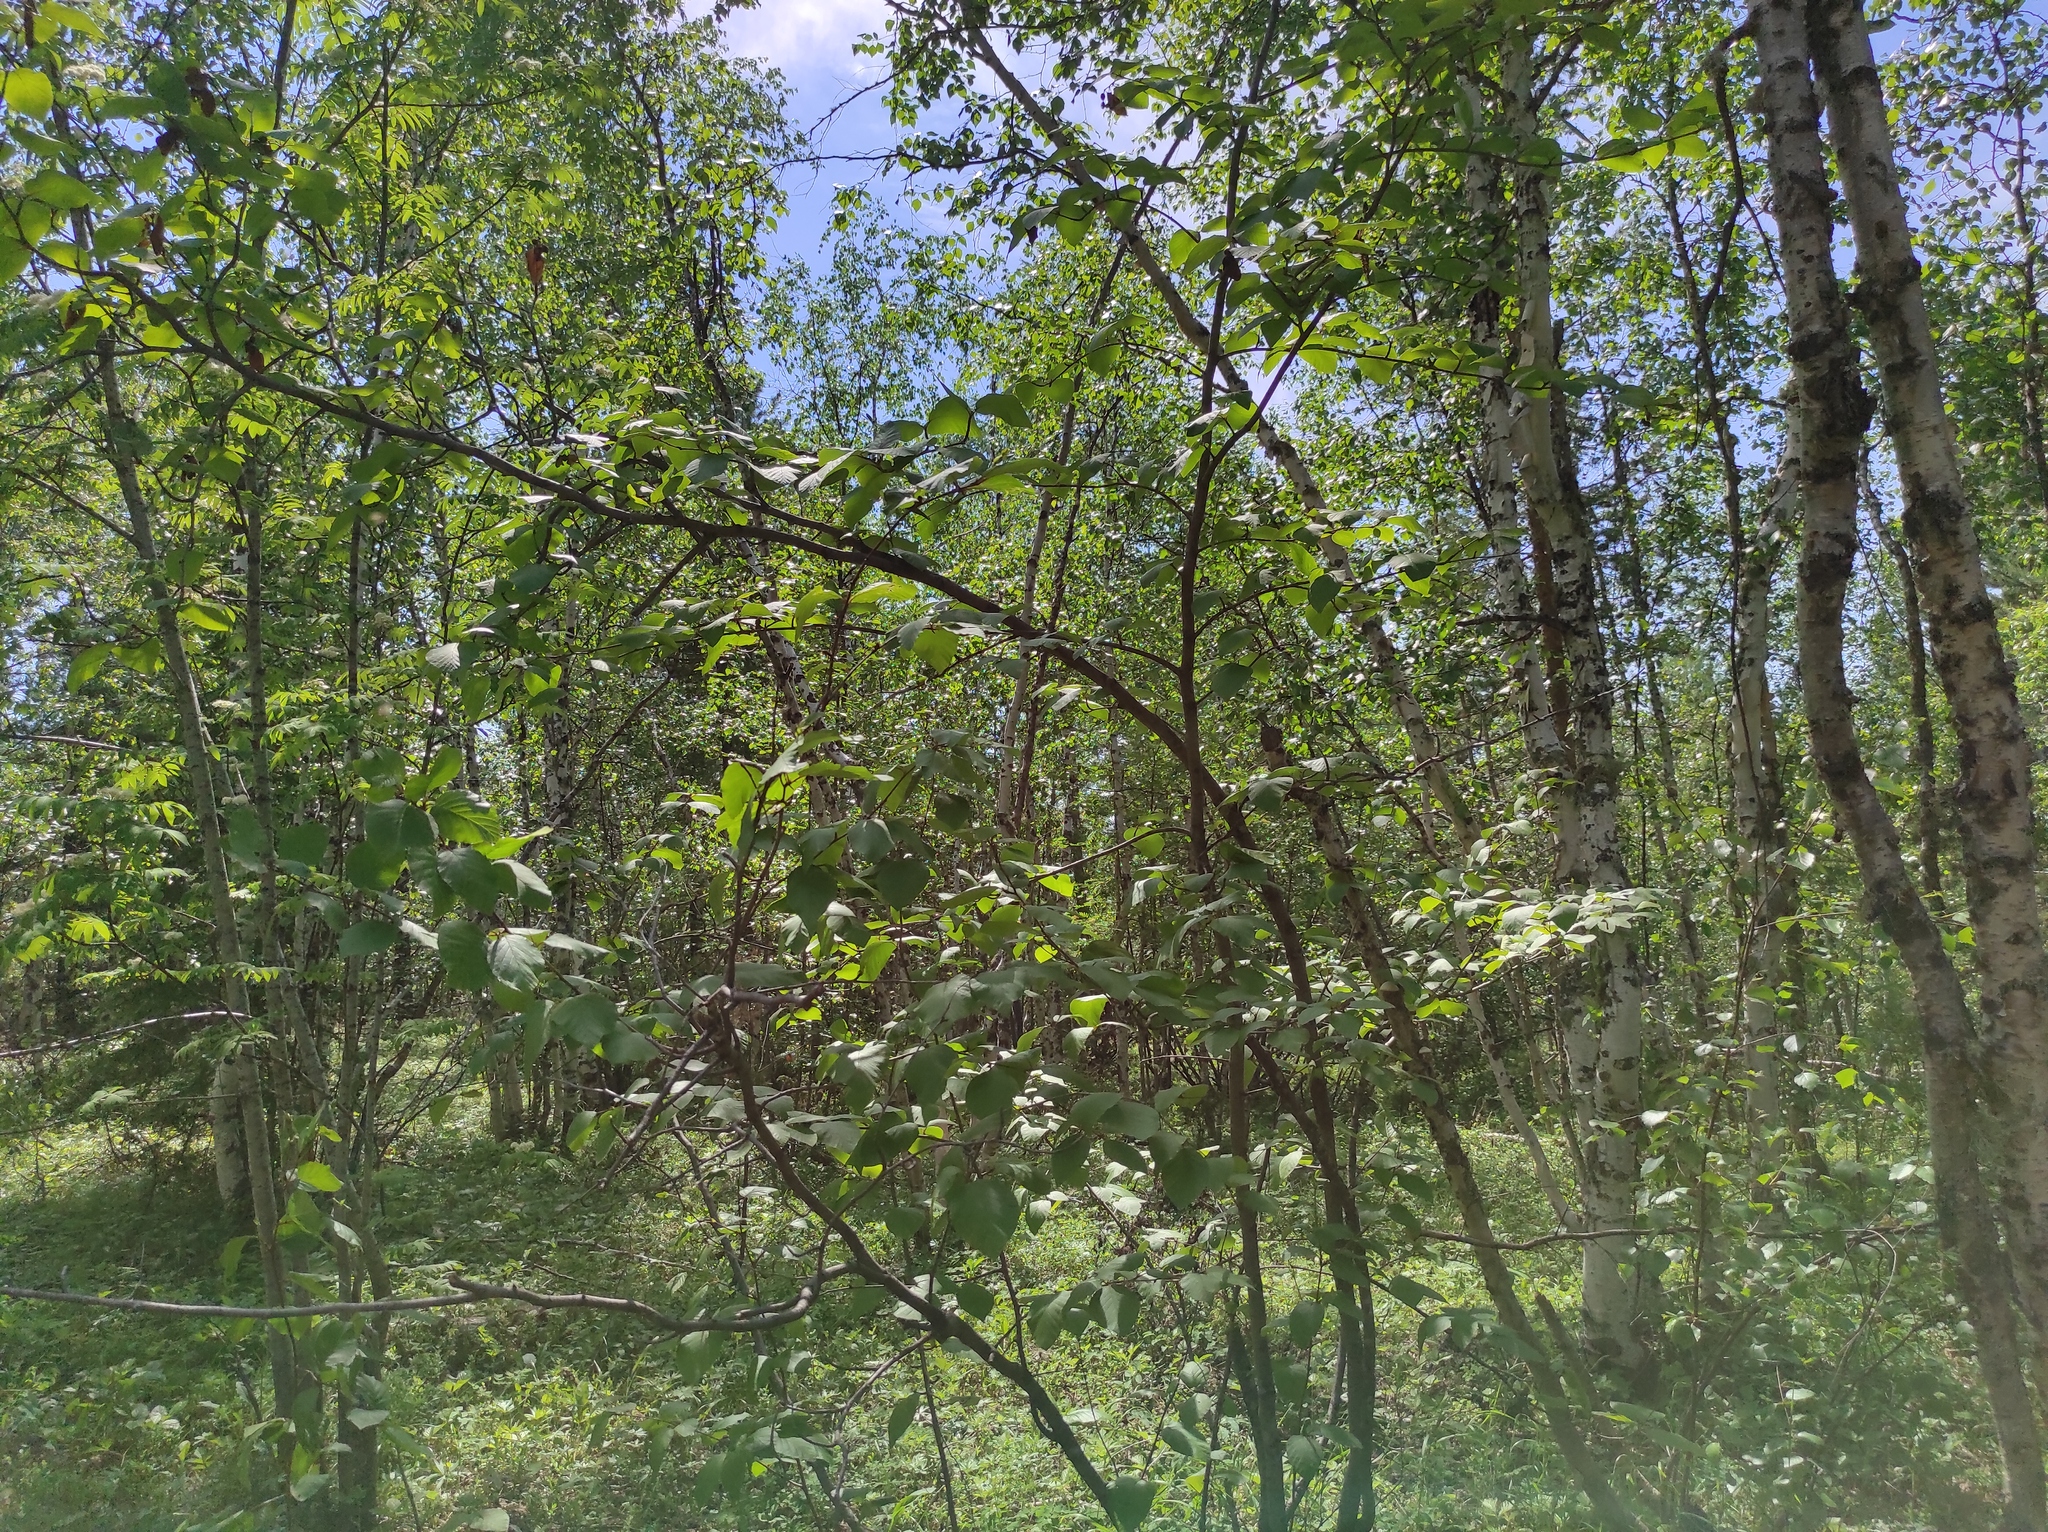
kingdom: Plantae
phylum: Tracheophyta
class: Magnoliopsida
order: Fagales
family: Betulaceae
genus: Alnus
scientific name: Alnus alnobetula
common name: Green alder
